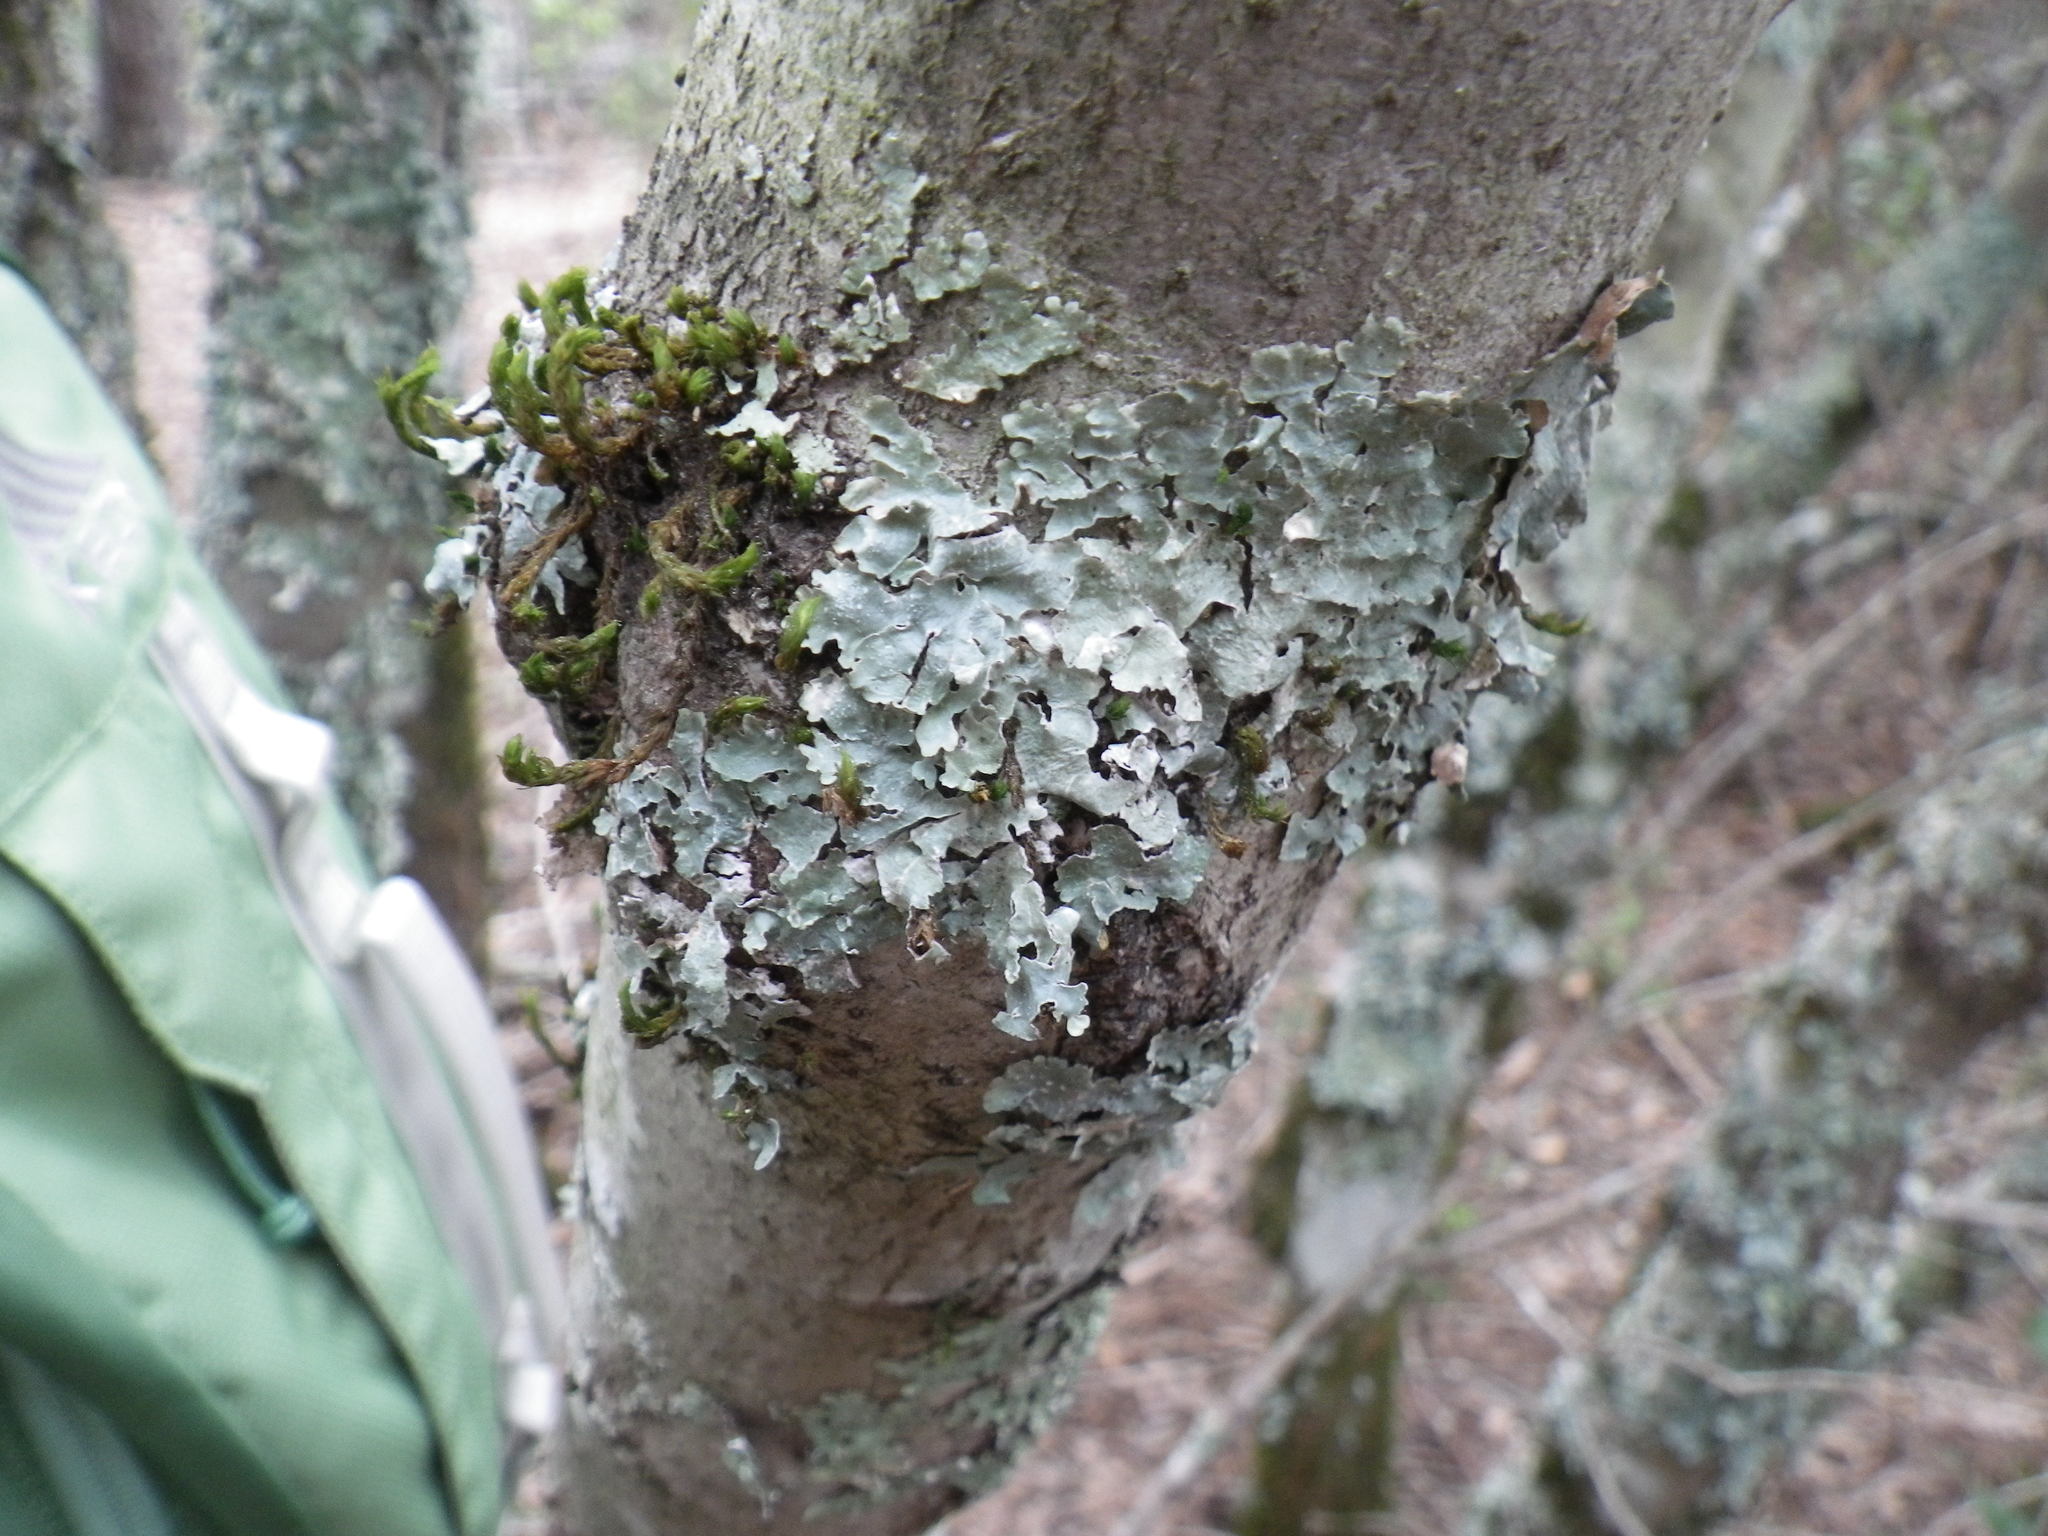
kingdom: Fungi
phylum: Ascomycota
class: Lecanoromycetes
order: Lecanorales
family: Parmeliaceae
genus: Flavoparmelia
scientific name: Flavoparmelia caperata
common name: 40-mile per hour lichen
